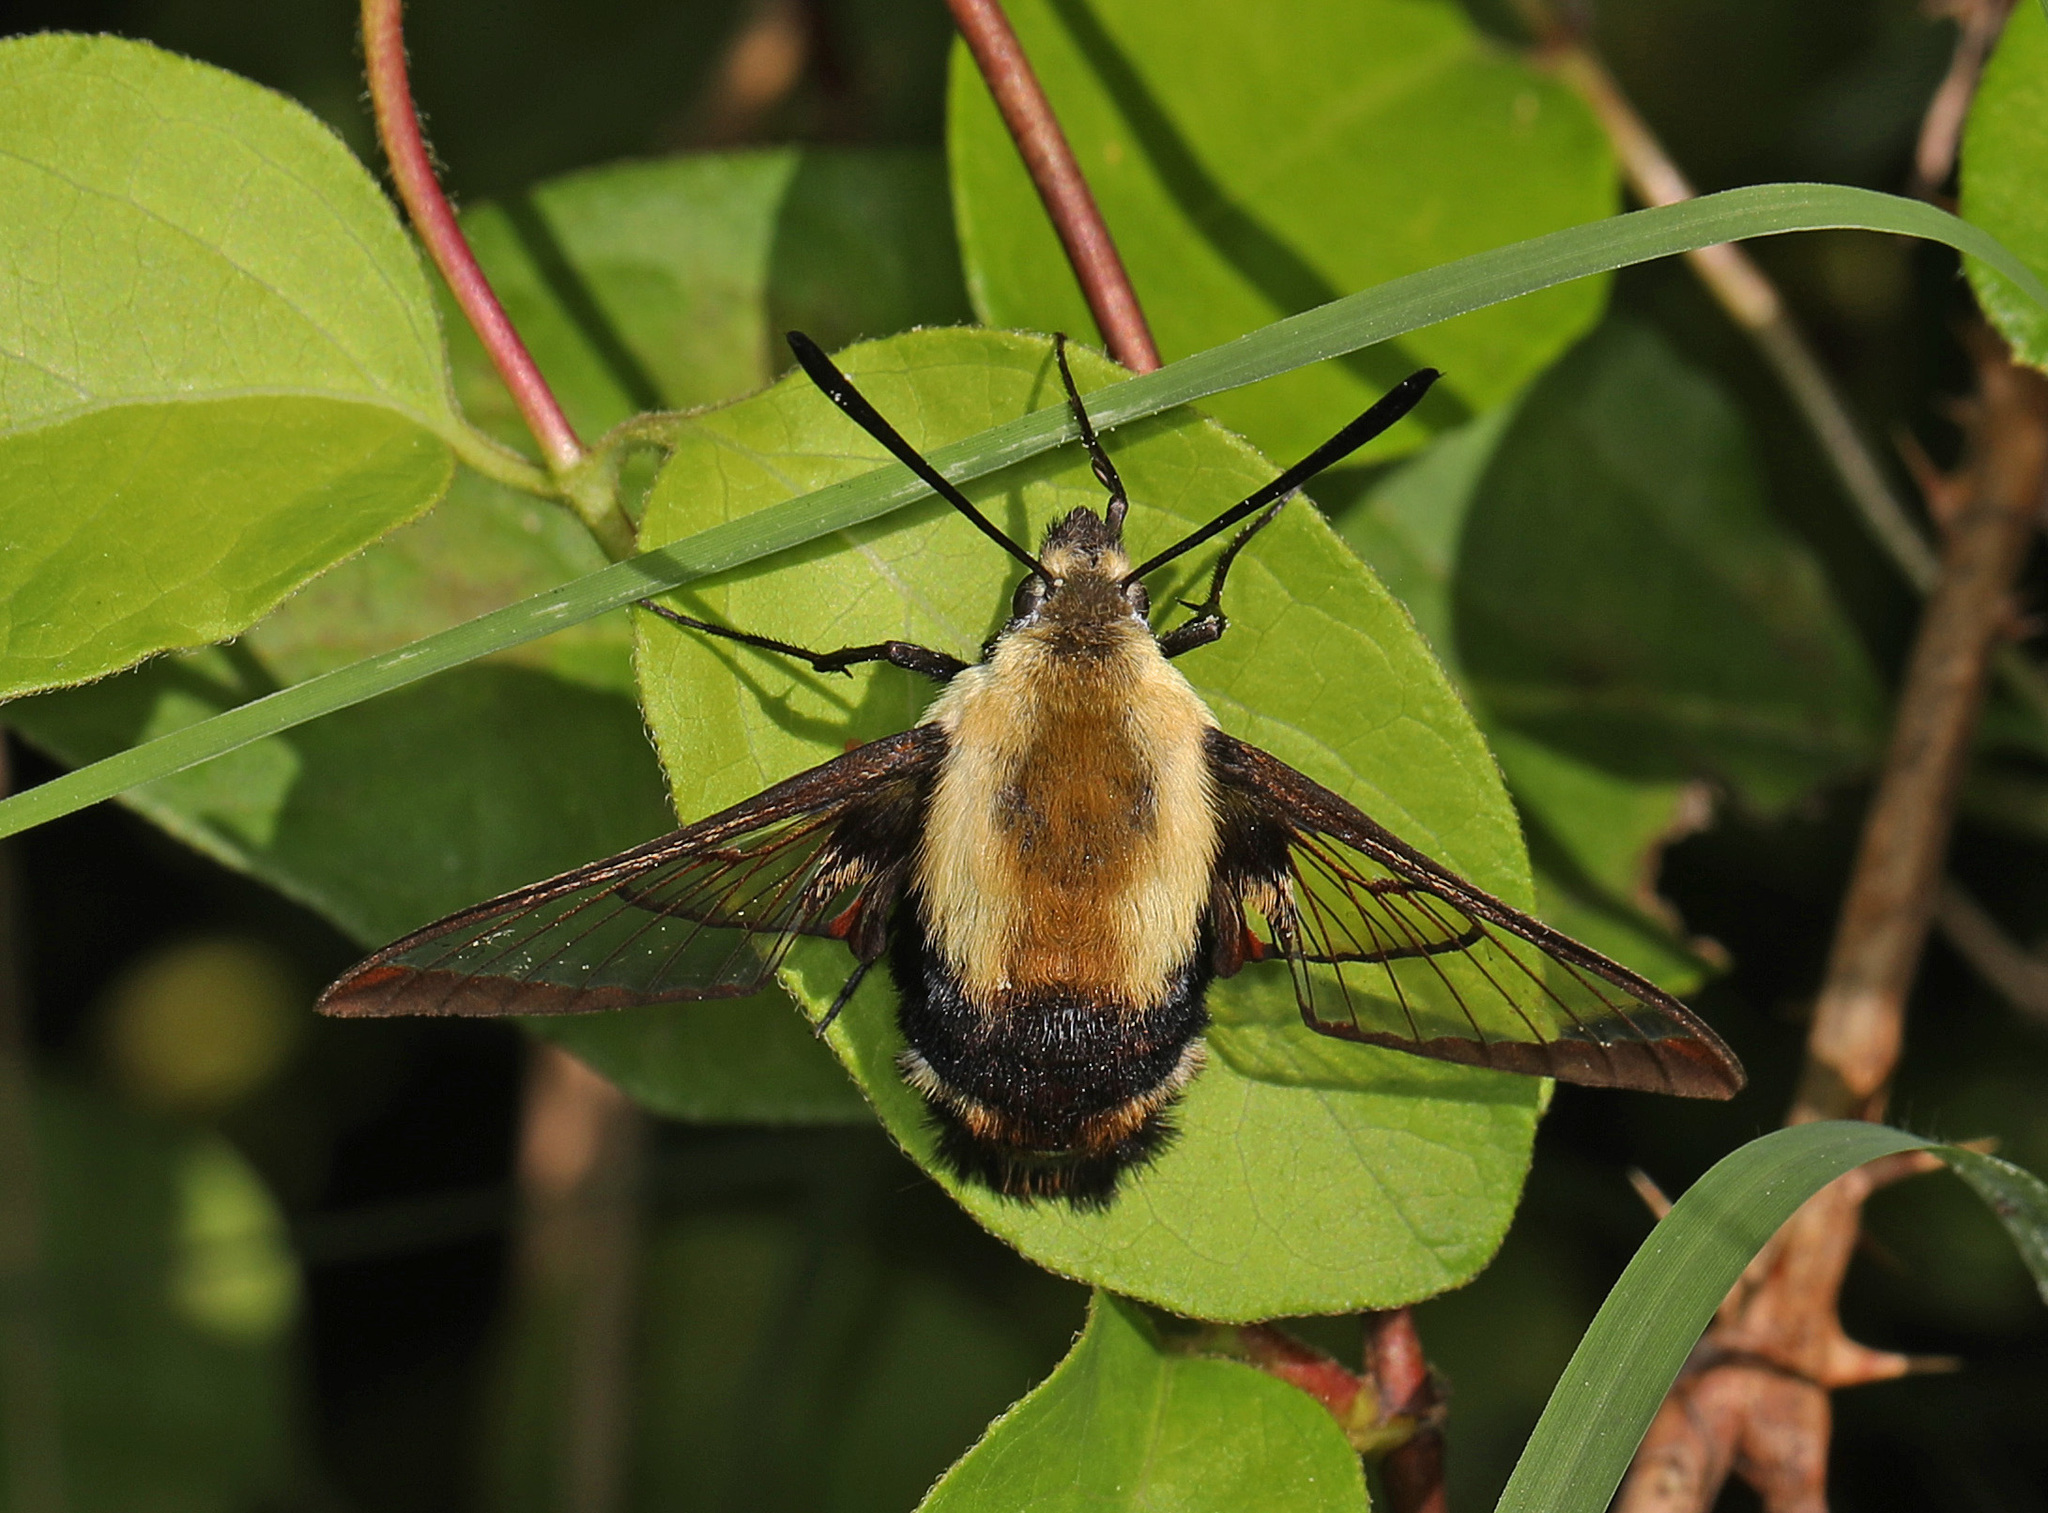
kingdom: Animalia
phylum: Arthropoda
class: Insecta
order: Lepidoptera
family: Sphingidae
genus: Hemaris
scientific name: Hemaris diffinis
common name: Bumblebee moth
